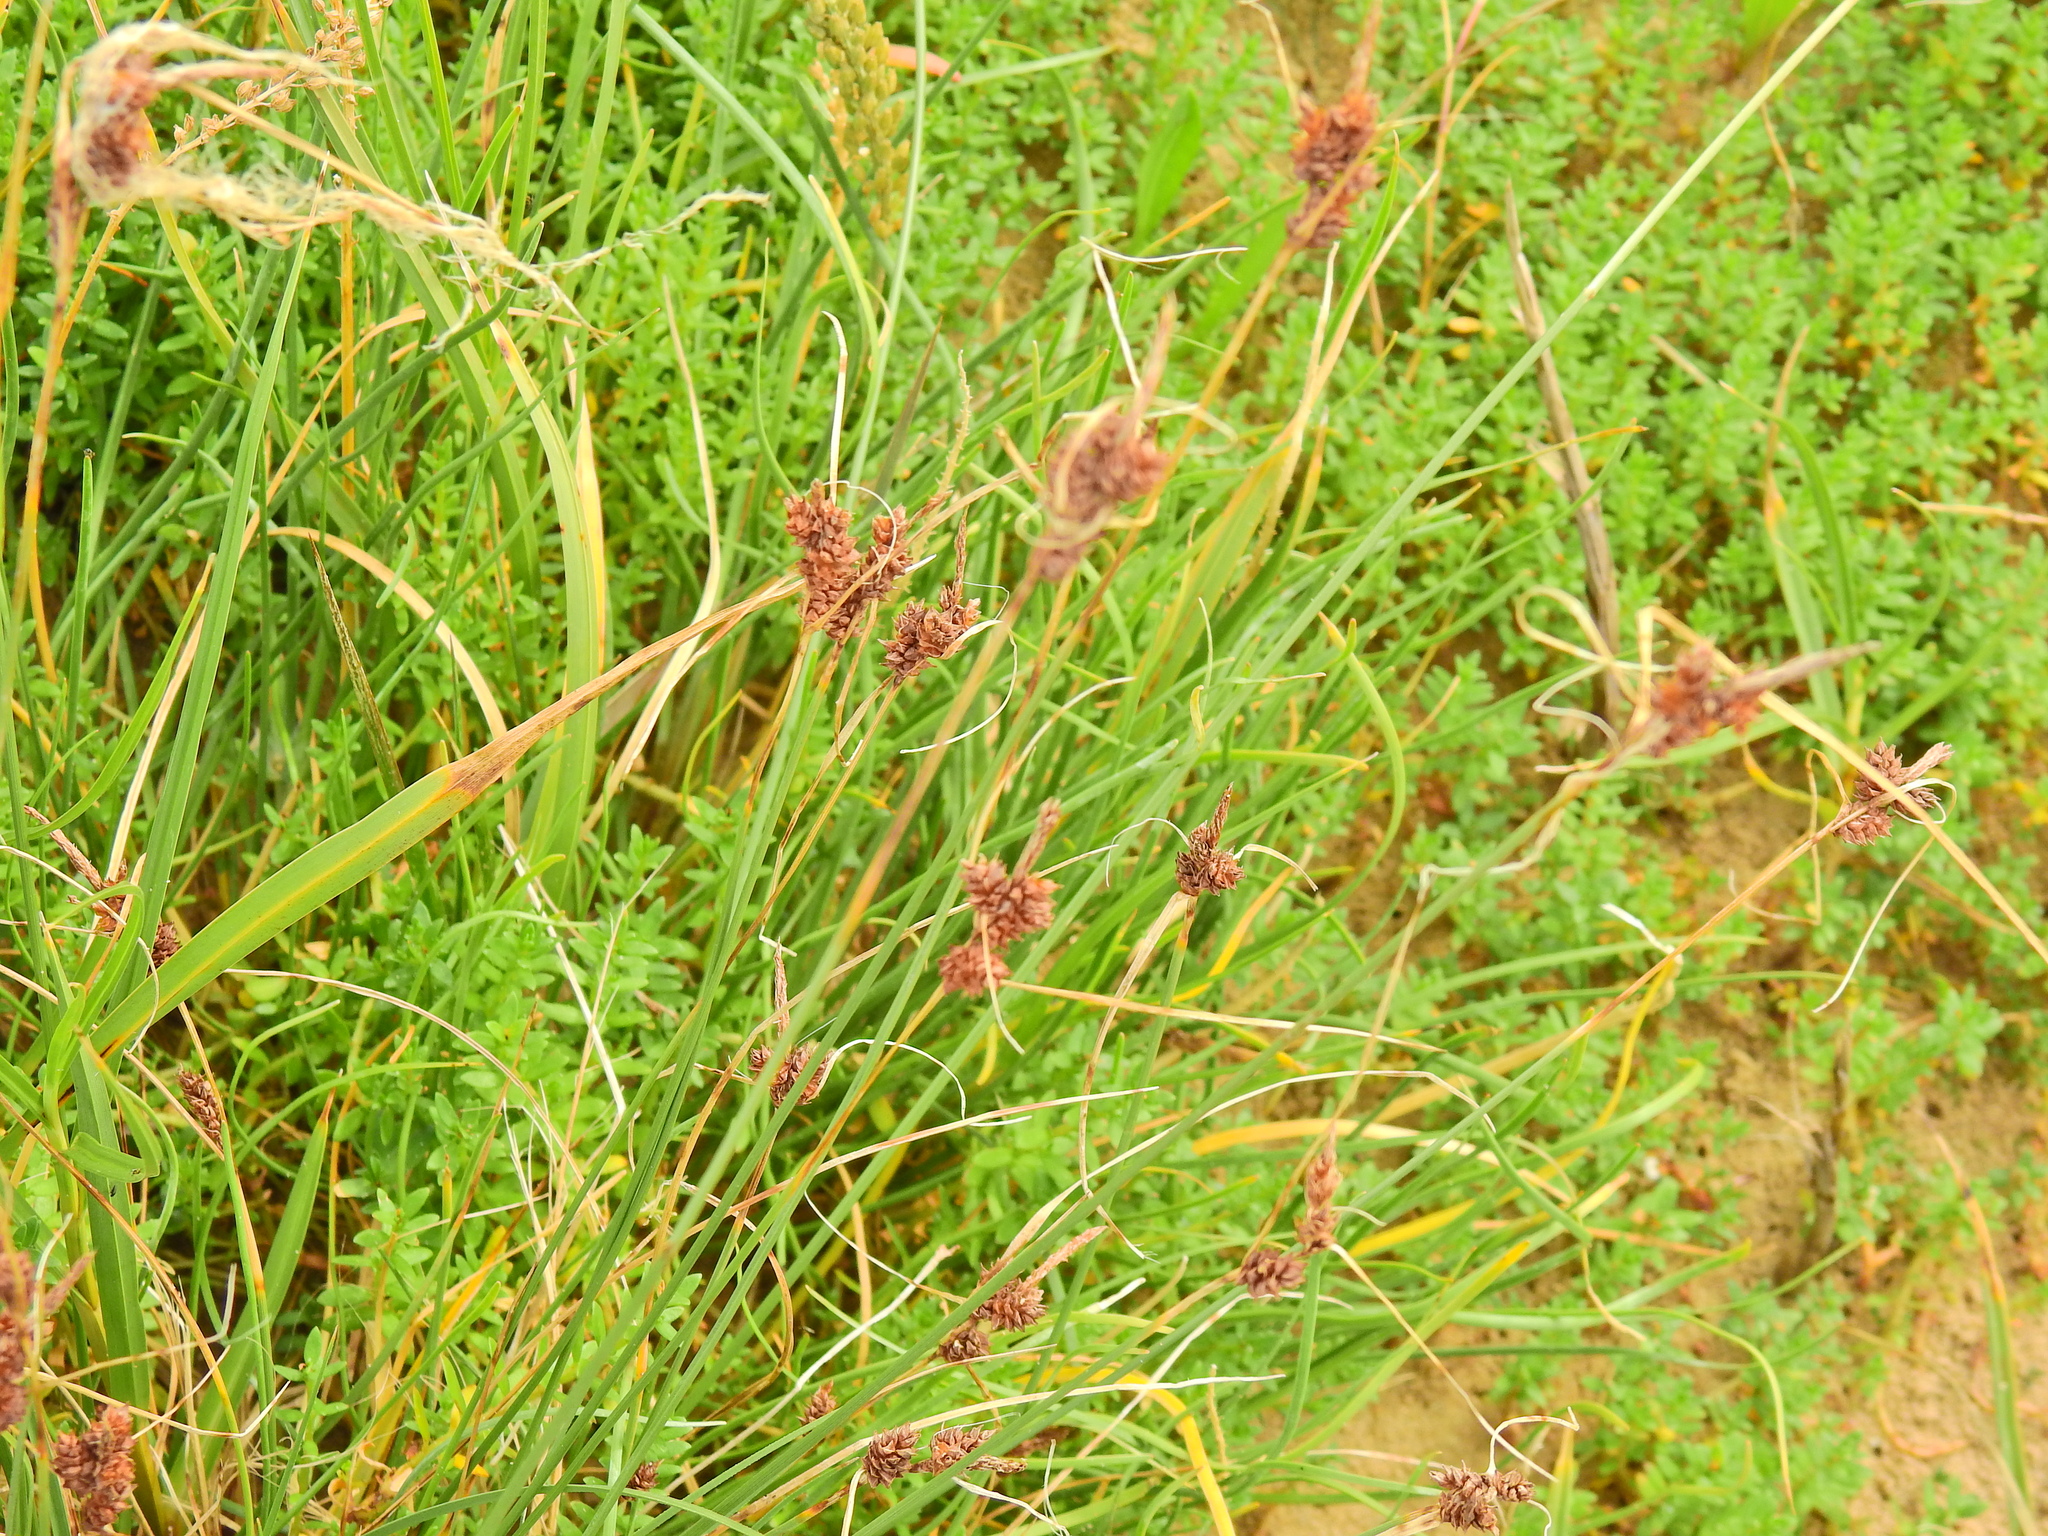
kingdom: Plantae
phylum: Tracheophyta
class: Liliopsida
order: Poales
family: Cyperaceae
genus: Carex
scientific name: Carex extensa
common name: Long-bracted sedge
